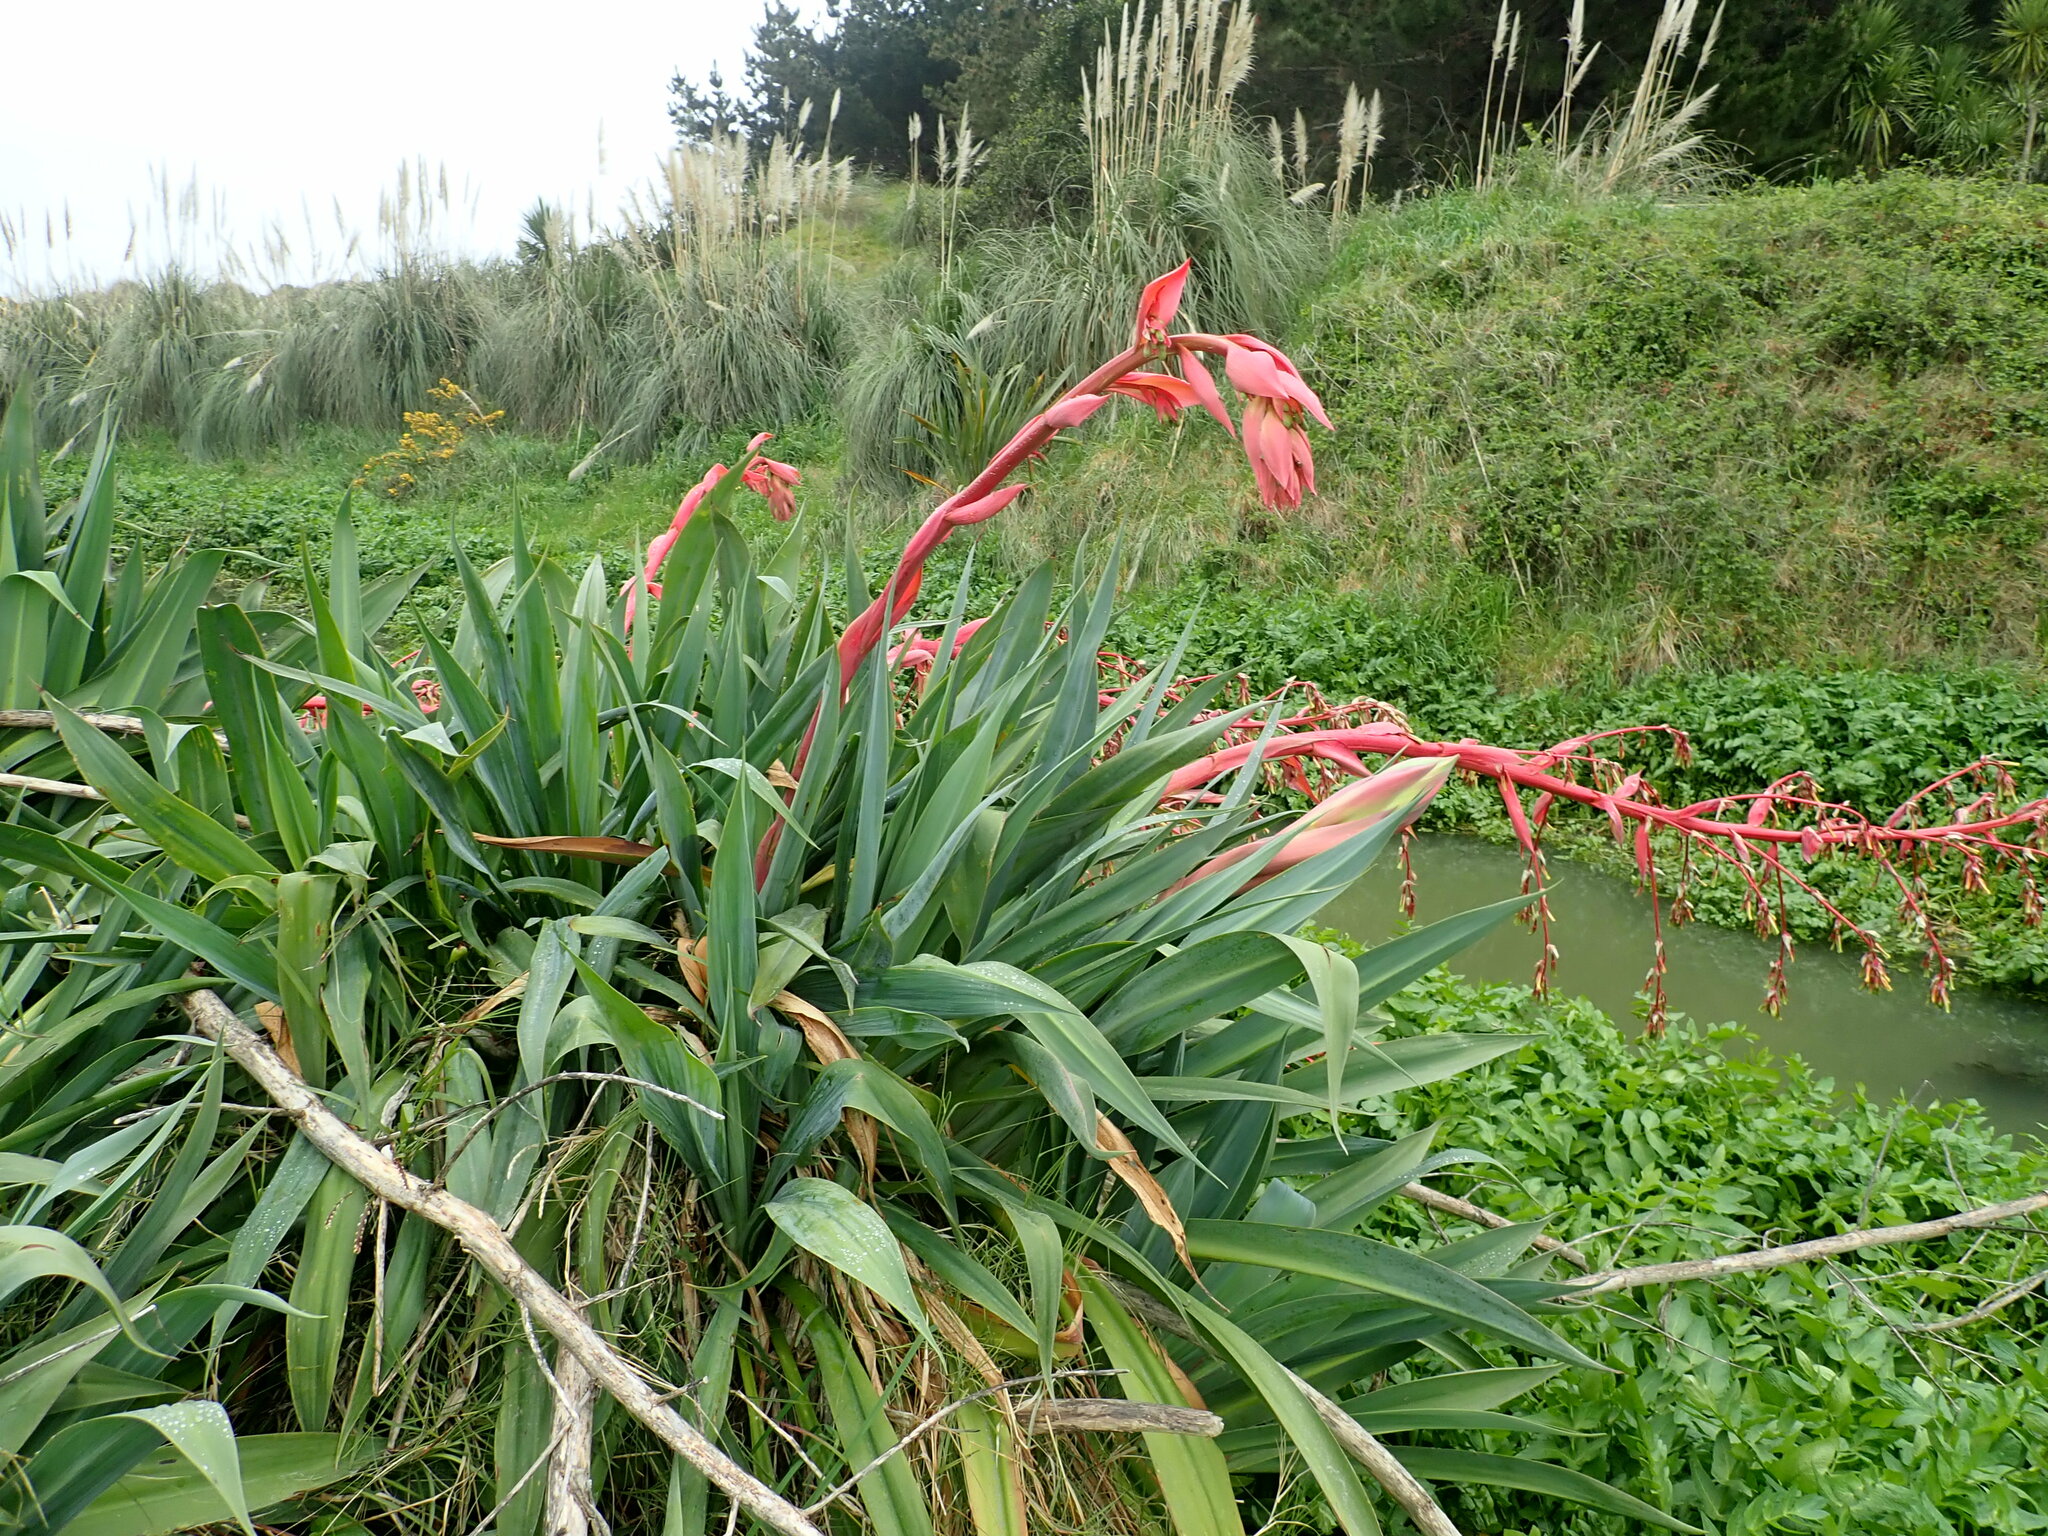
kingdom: Plantae
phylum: Tracheophyta
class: Liliopsida
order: Asparagales
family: Asparagaceae
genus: Beschorneria
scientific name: Beschorneria yuccoides
